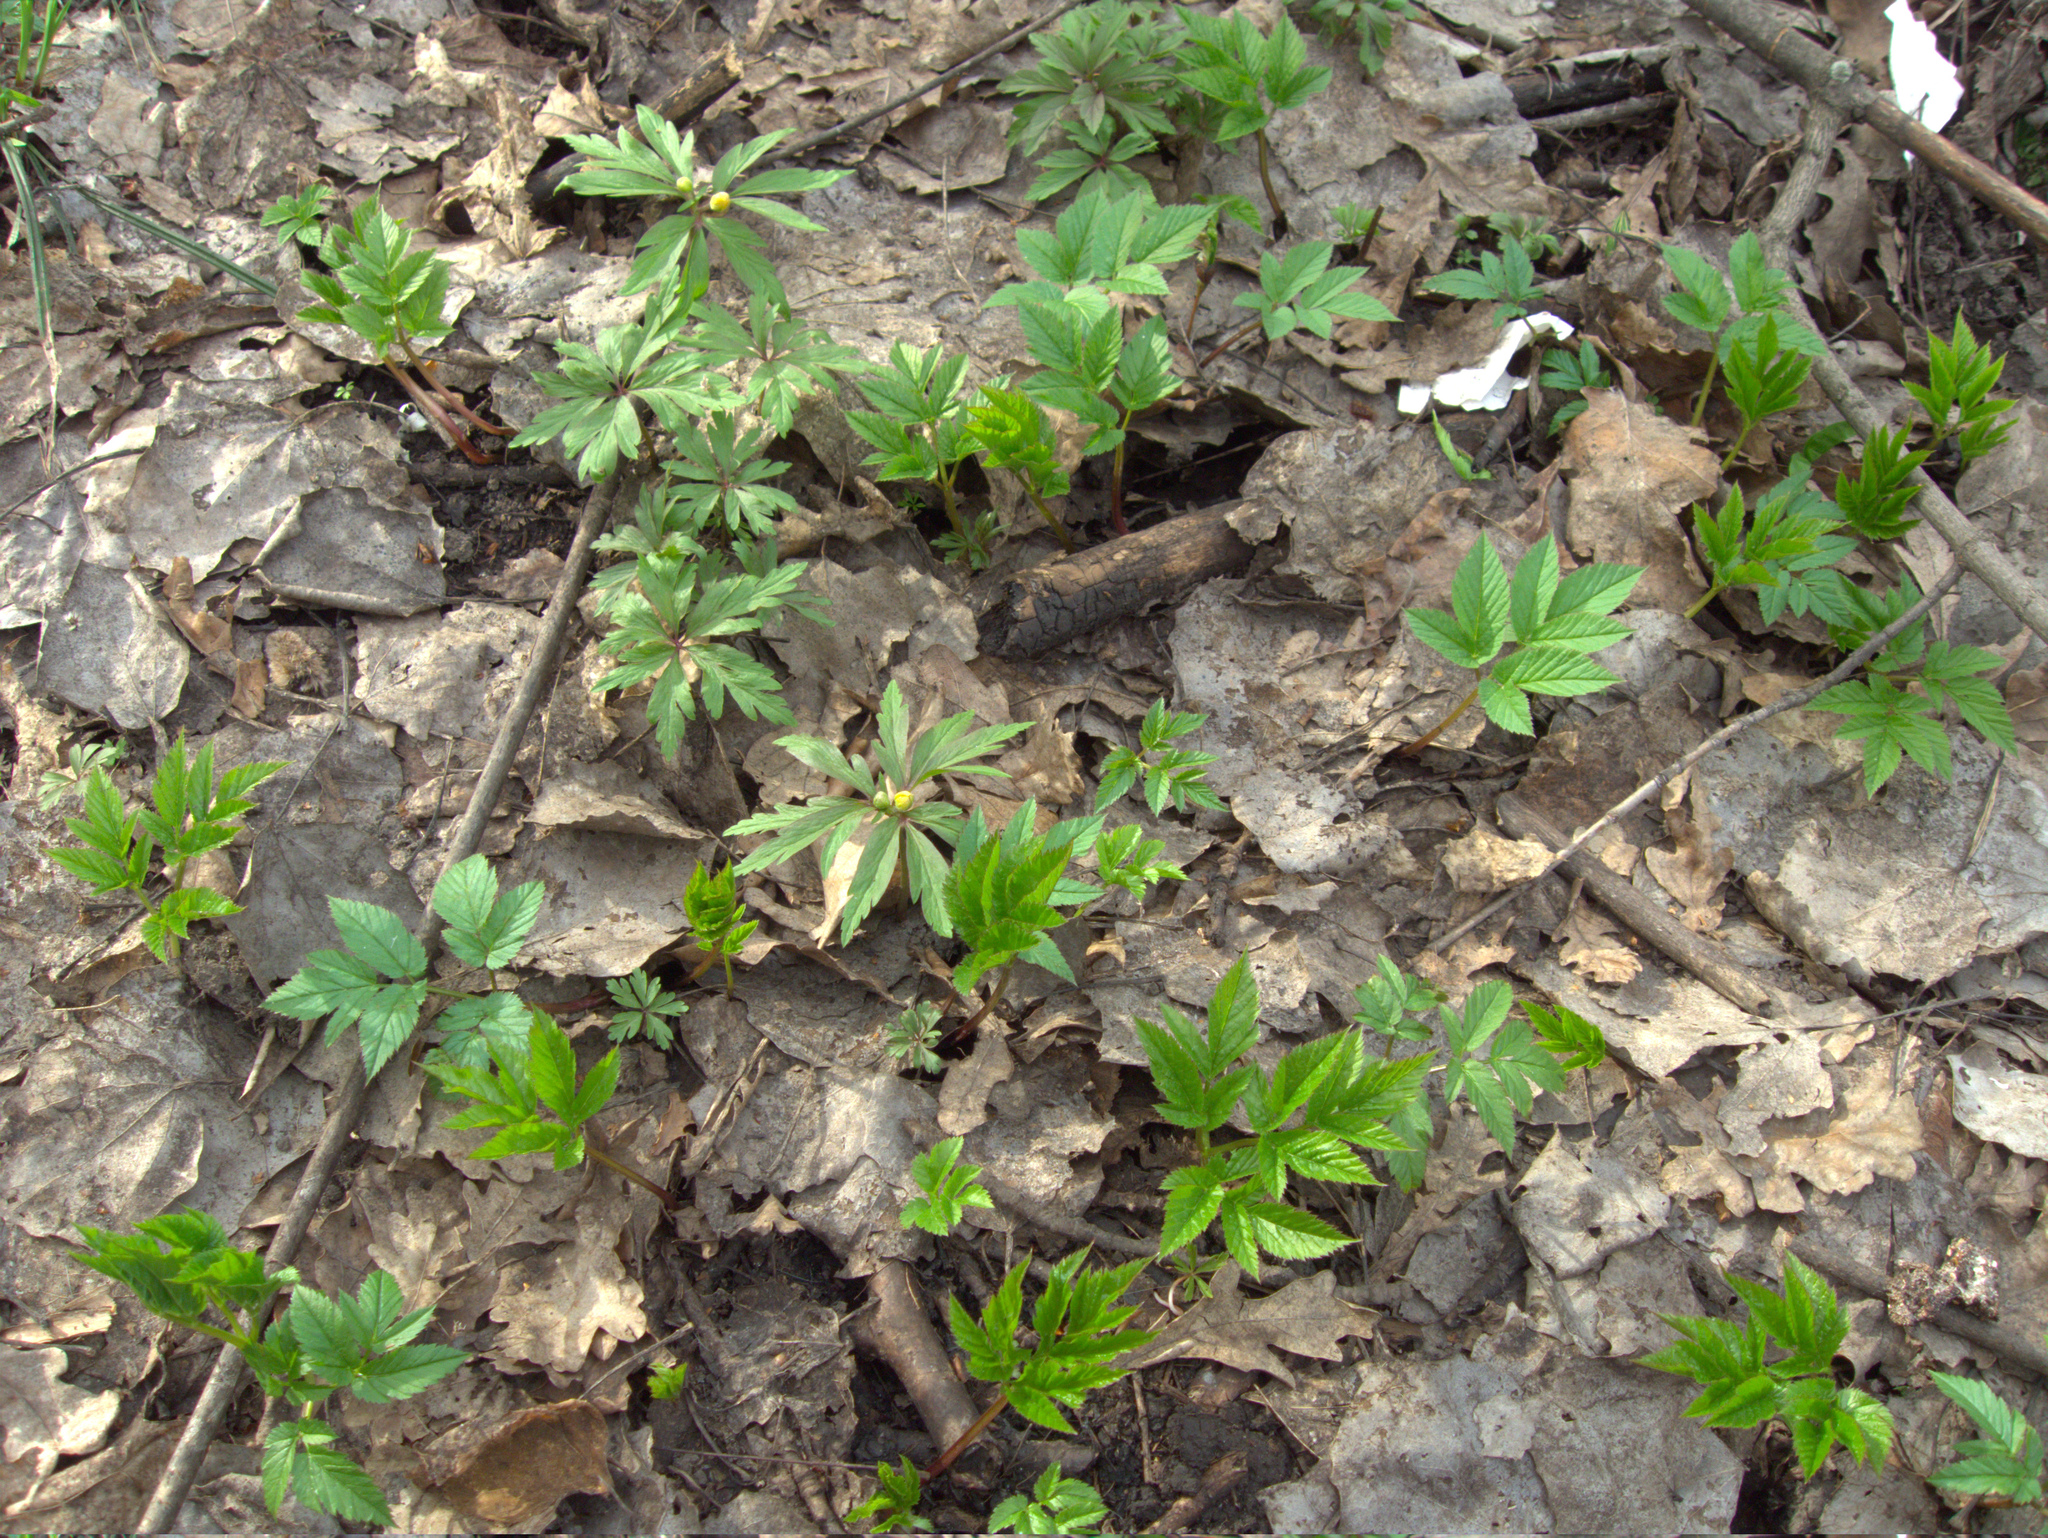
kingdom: Plantae
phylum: Tracheophyta
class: Magnoliopsida
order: Apiales
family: Apiaceae
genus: Aegopodium
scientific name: Aegopodium podagraria
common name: Ground-elder
